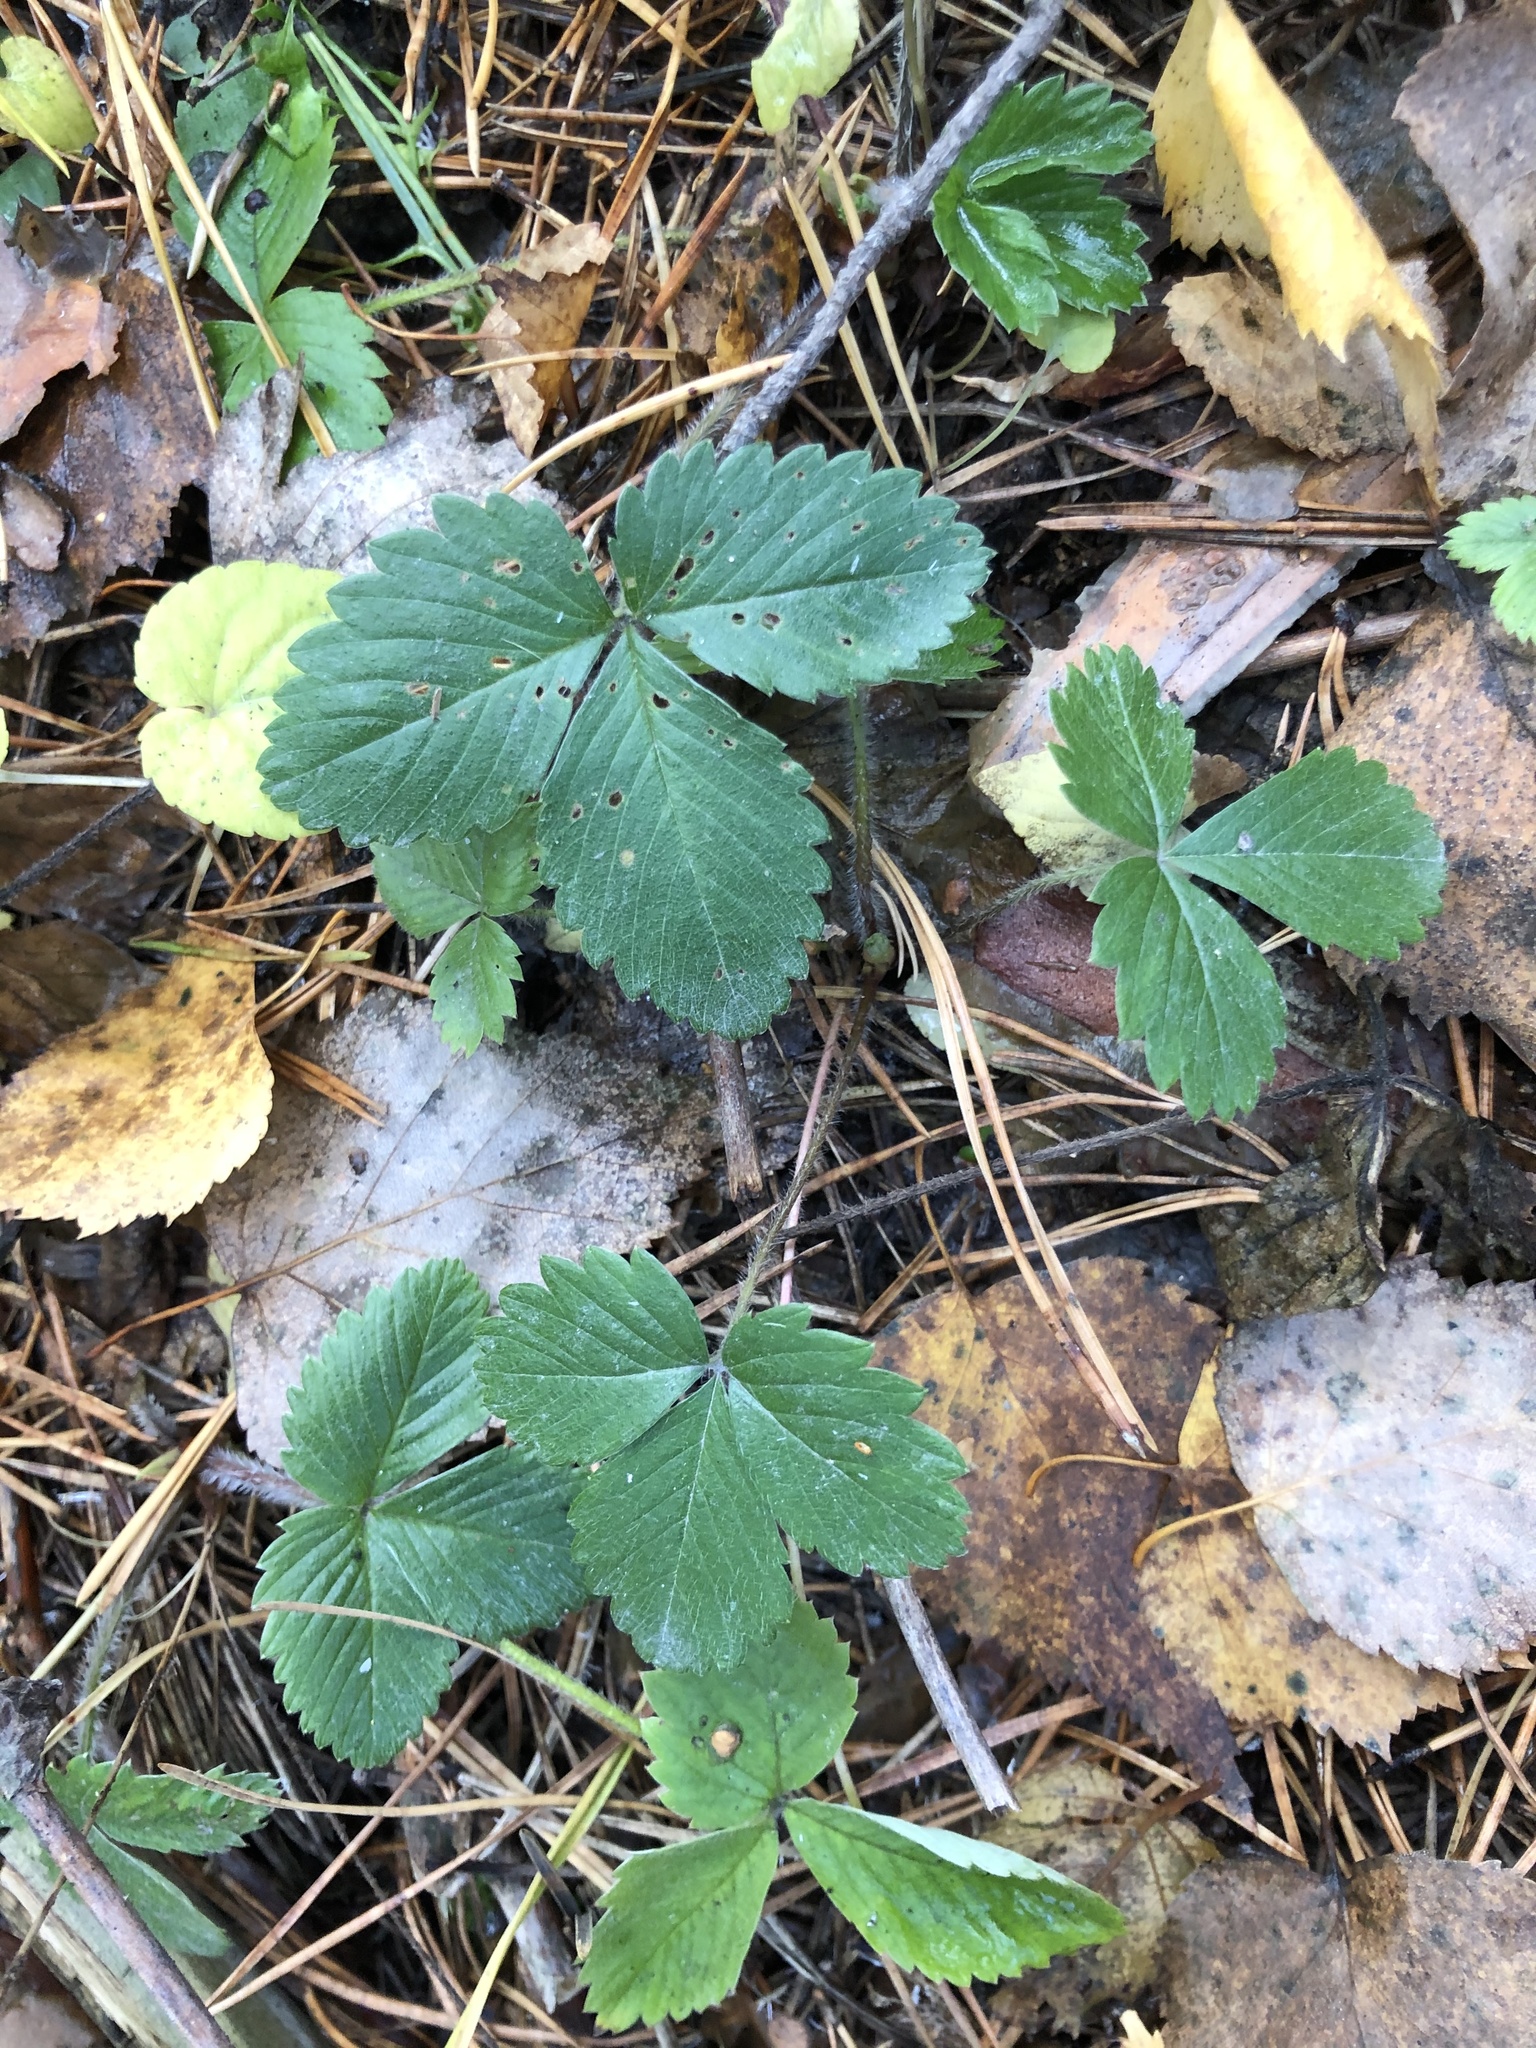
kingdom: Plantae
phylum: Tracheophyta
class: Magnoliopsida
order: Rosales
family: Rosaceae
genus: Fragaria
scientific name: Fragaria vesca
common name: Wild strawberry
